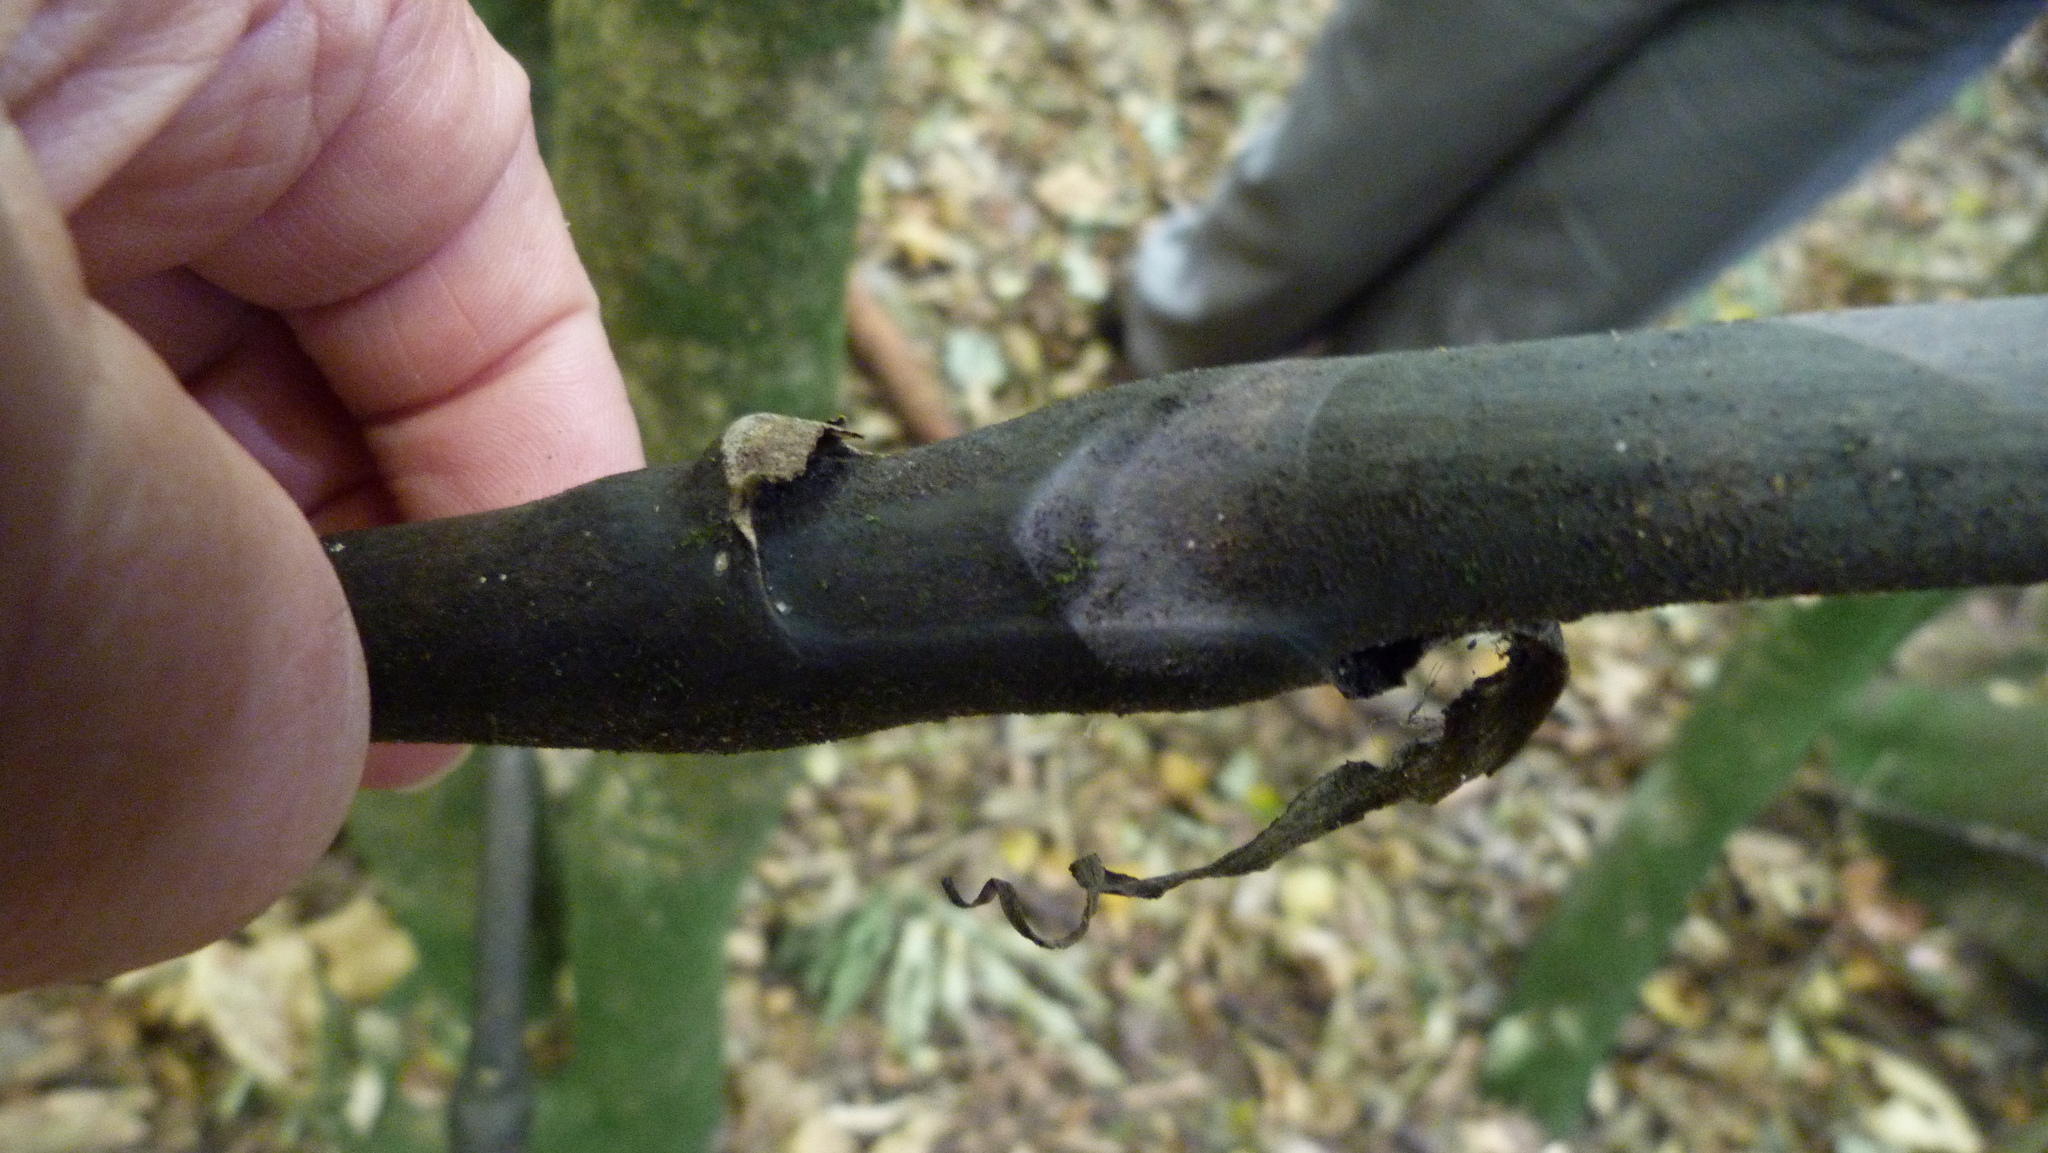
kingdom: Plantae
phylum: Tracheophyta
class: Liliopsida
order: Liliales
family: Ripogonaceae
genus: Ripogonum
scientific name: Ripogonum scandens
